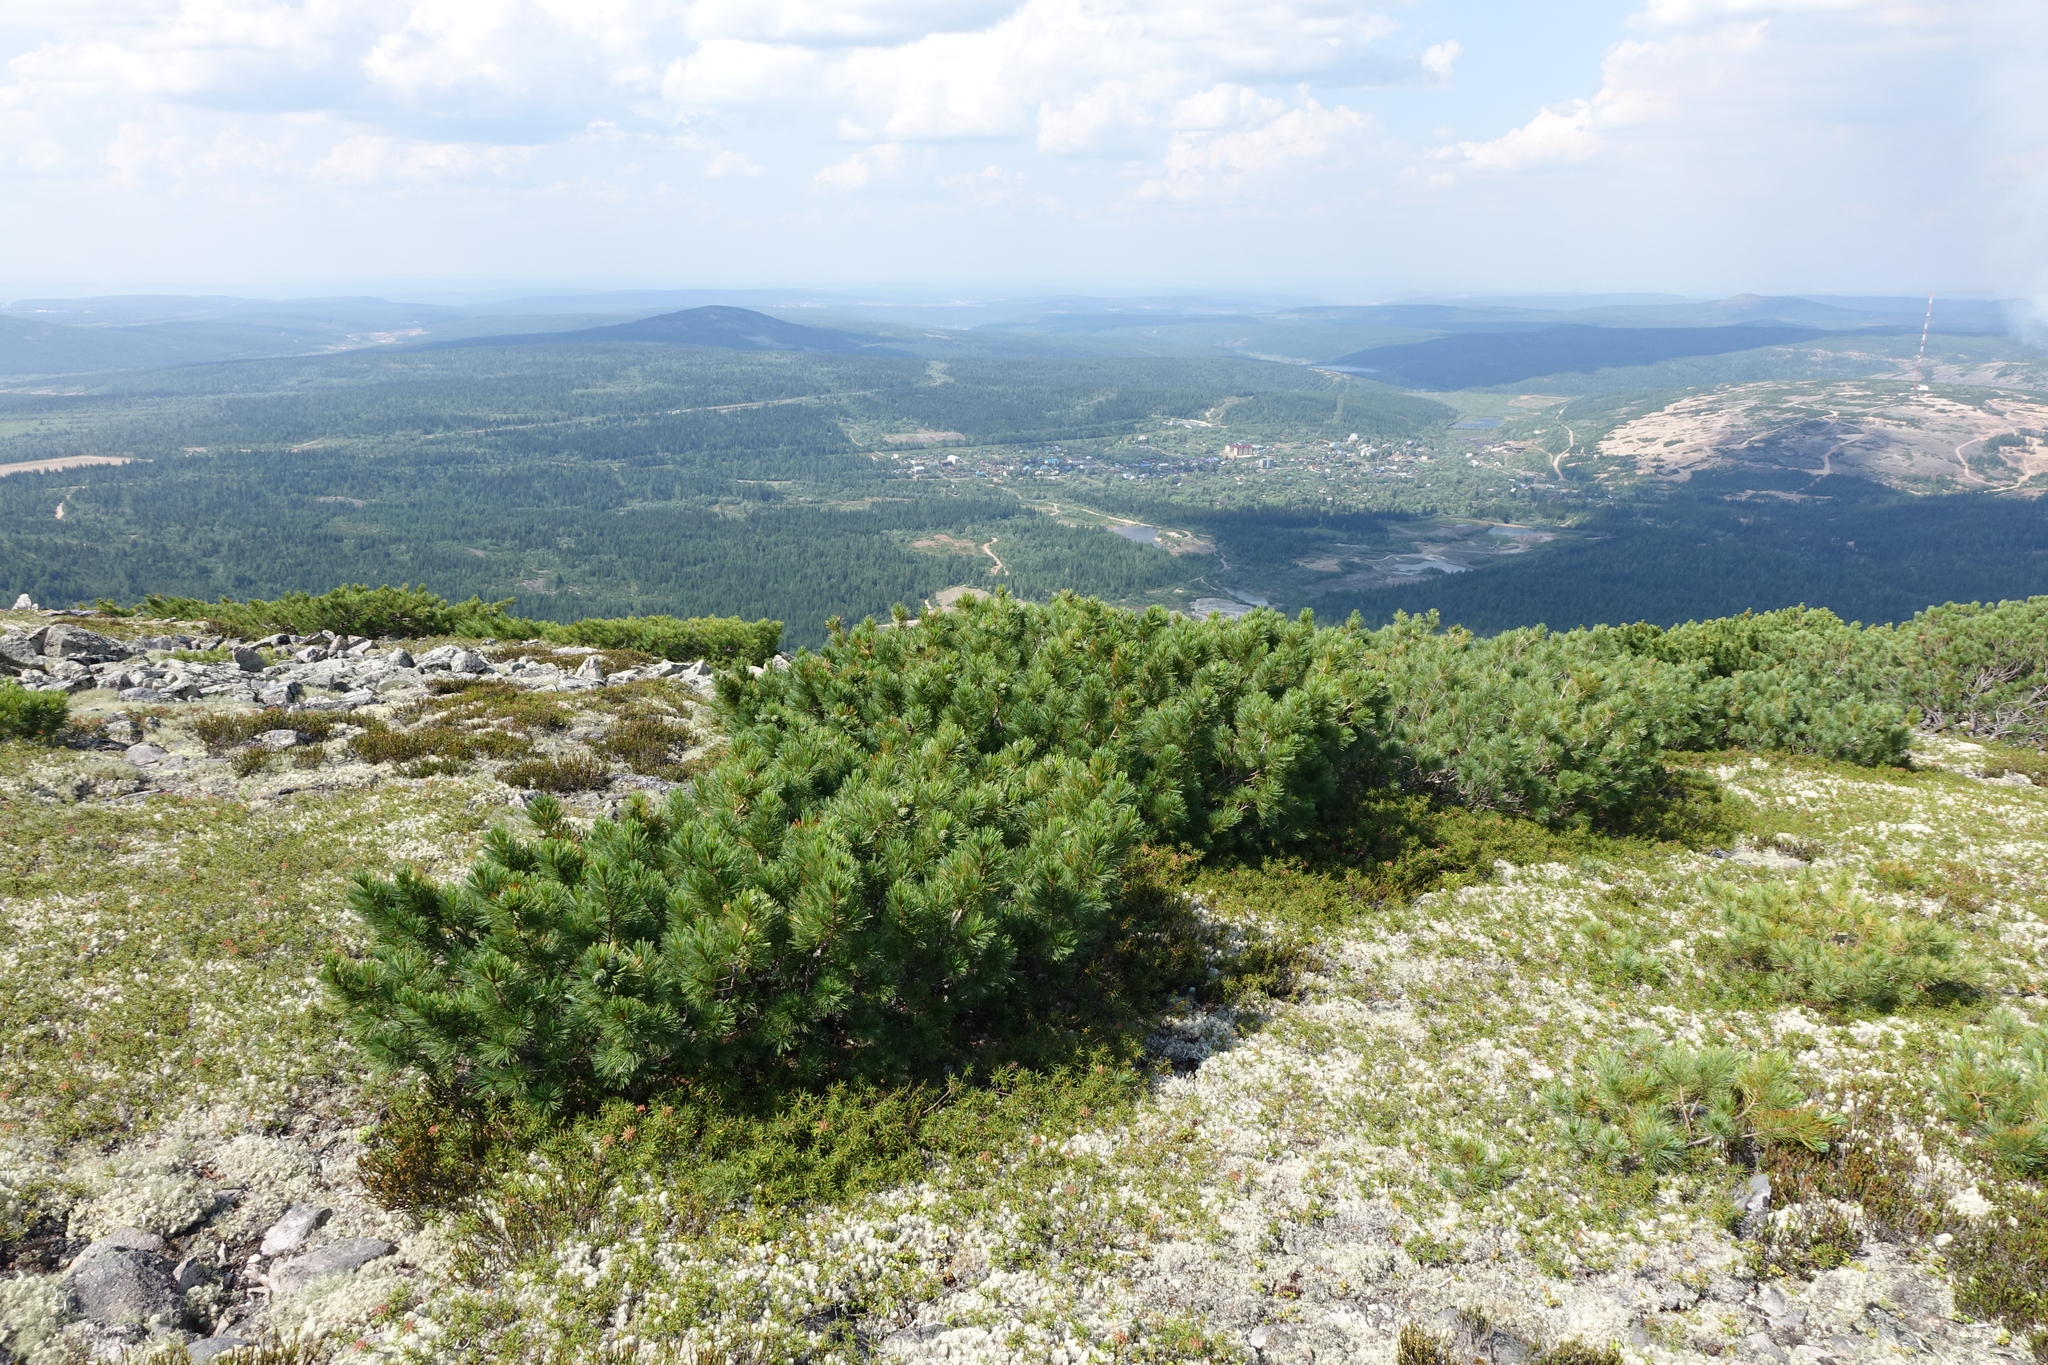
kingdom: Plantae
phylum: Tracheophyta
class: Pinopsida
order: Pinales
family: Pinaceae
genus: Pinus
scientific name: Pinus pumila
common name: Dwarf siberian pine
